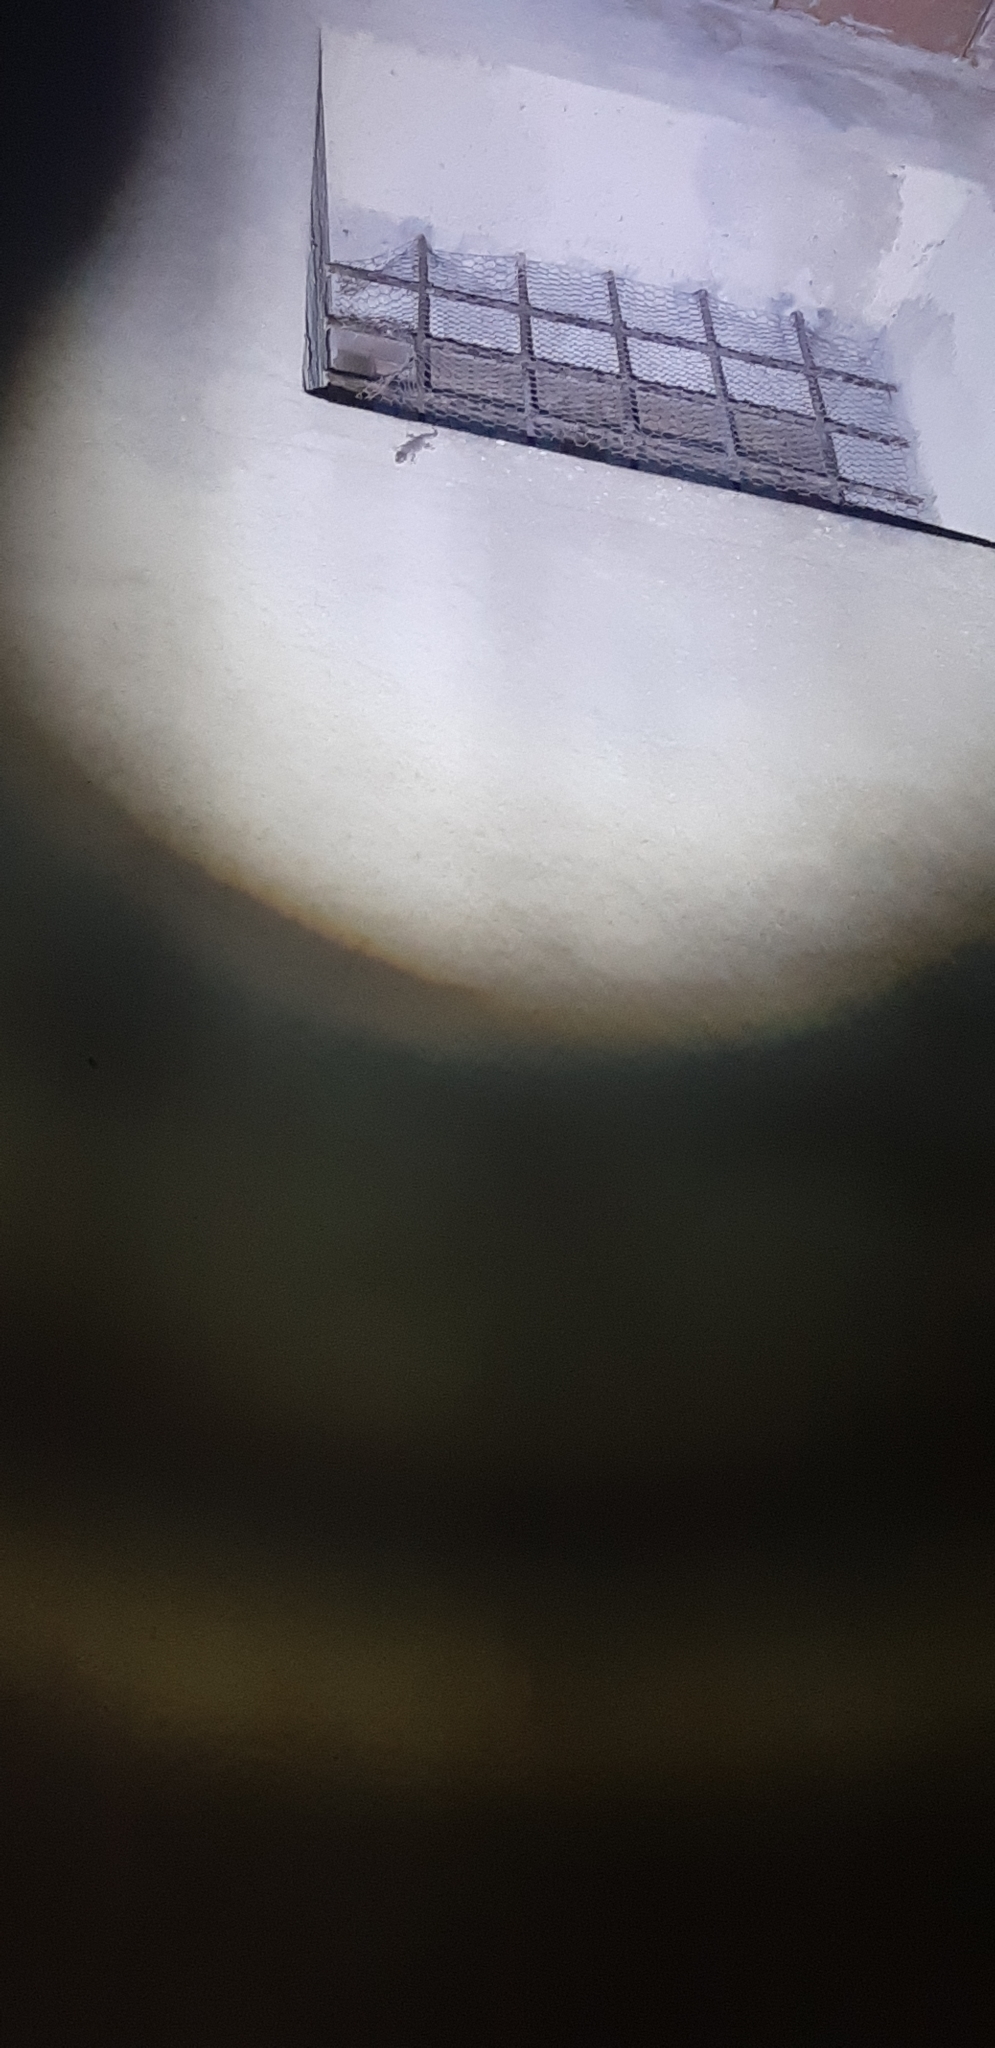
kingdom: Animalia
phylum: Chordata
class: Squamata
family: Phyllodactylidae
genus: Tarentola
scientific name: Tarentola mauritanica
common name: Moorish gecko
